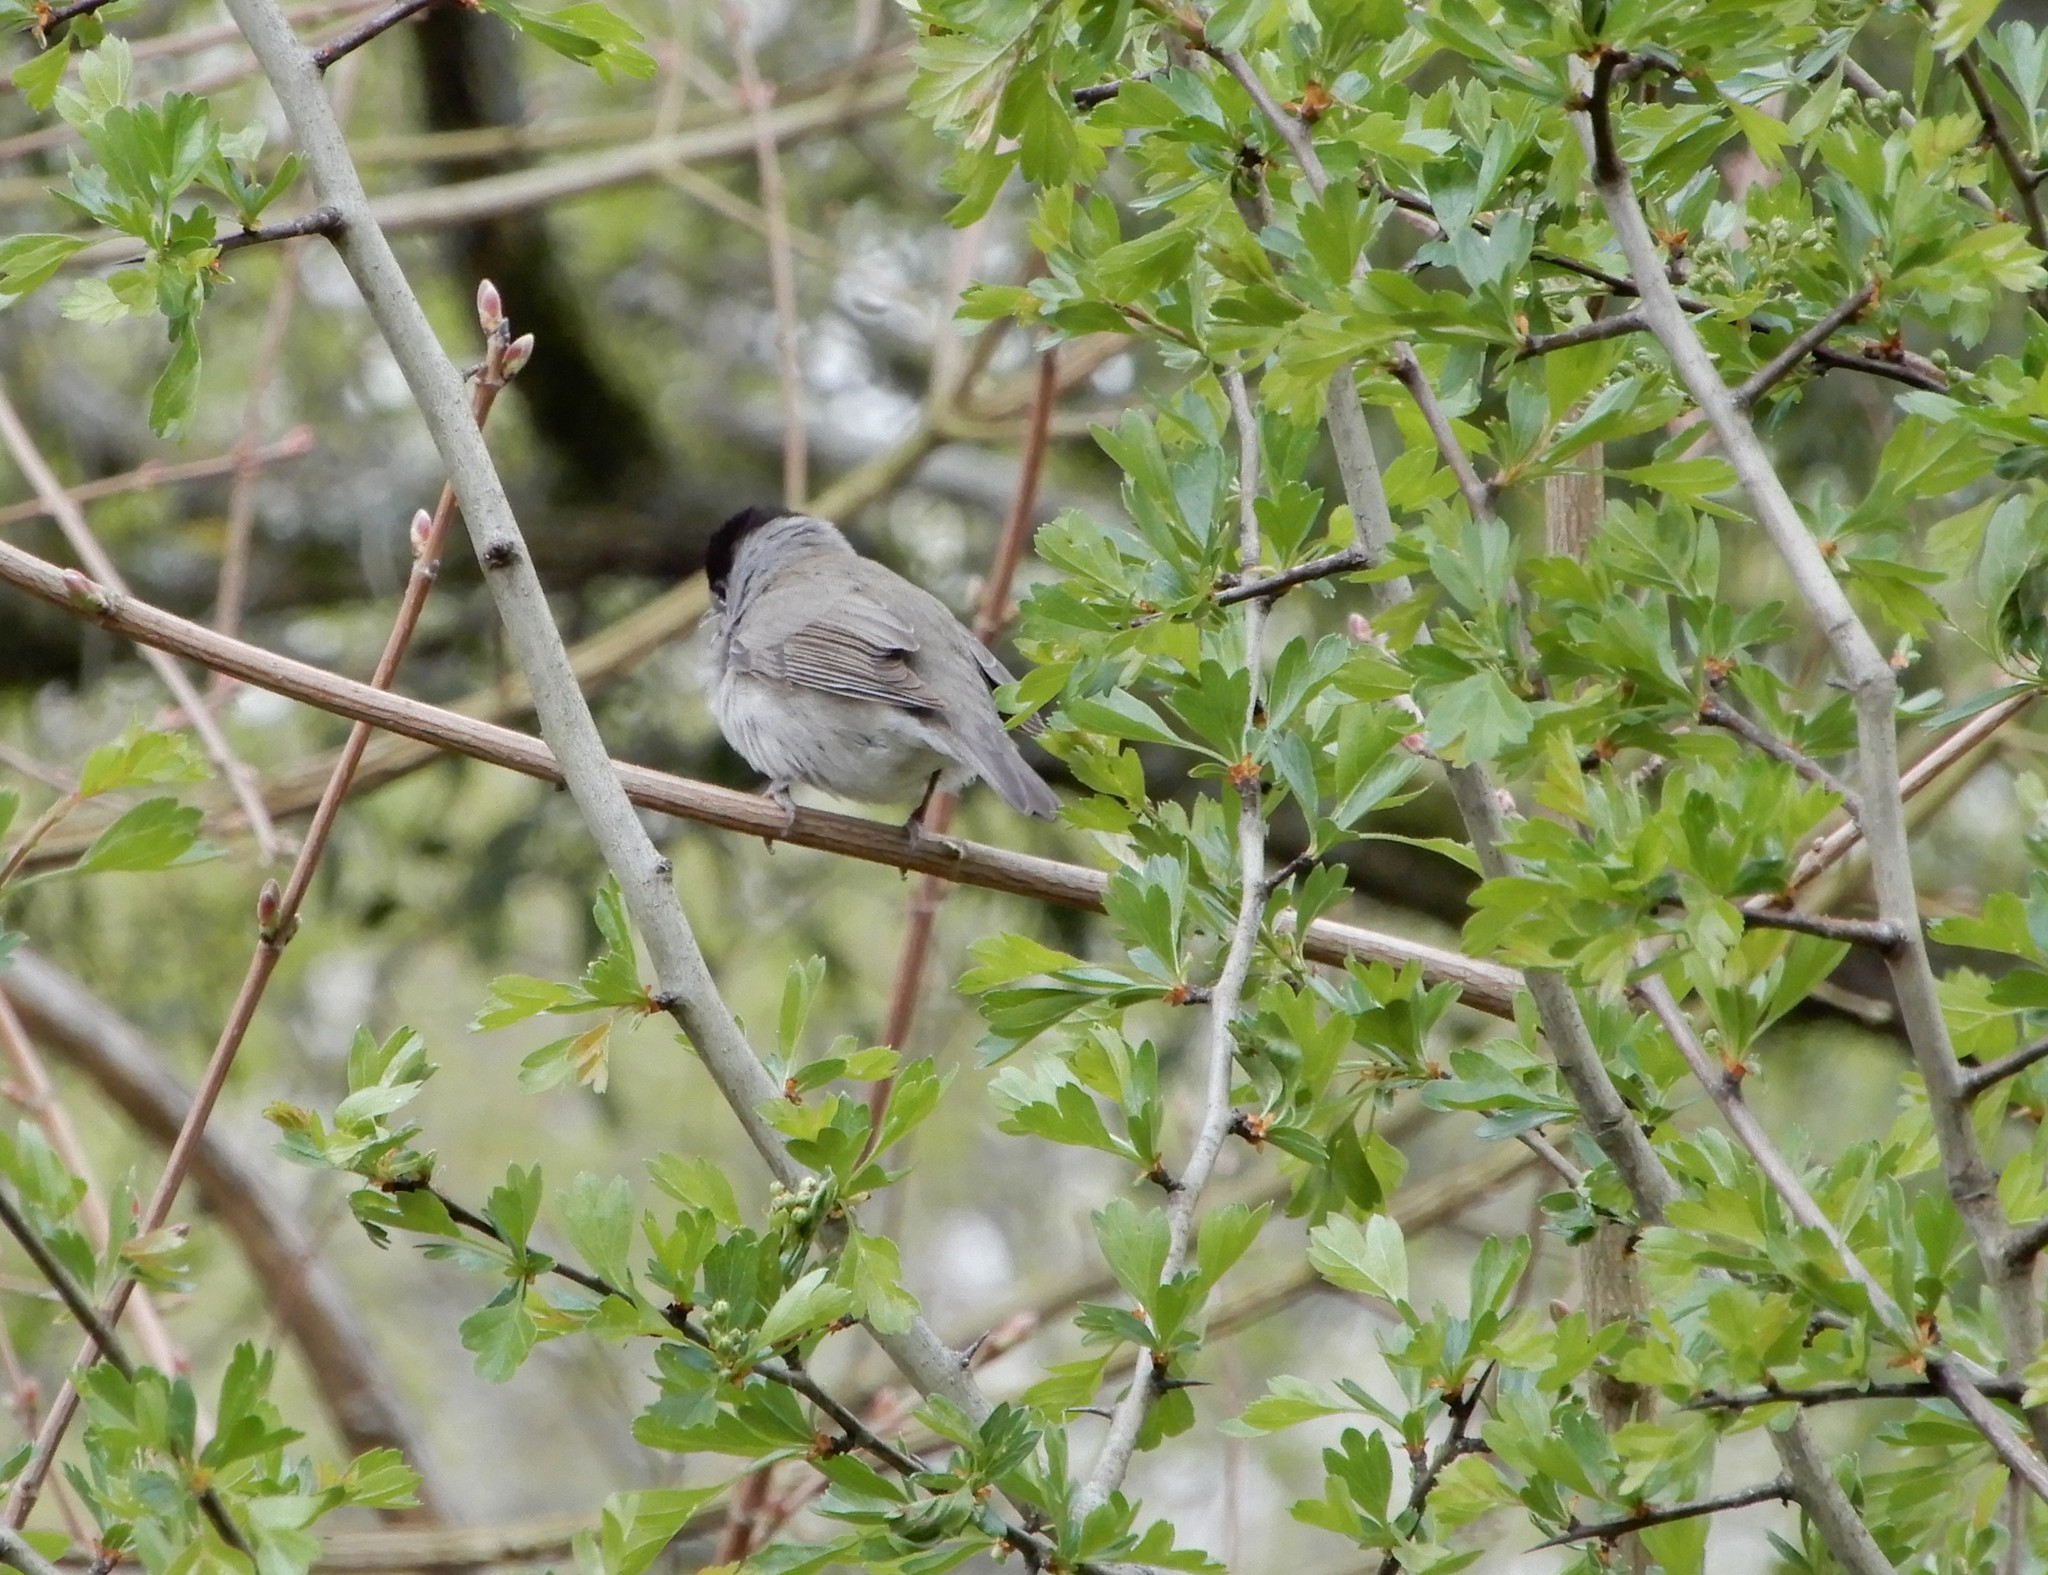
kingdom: Animalia
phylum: Chordata
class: Aves
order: Passeriformes
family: Sylviidae
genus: Sylvia
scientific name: Sylvia atricapilla
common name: Eurasian blackcap
